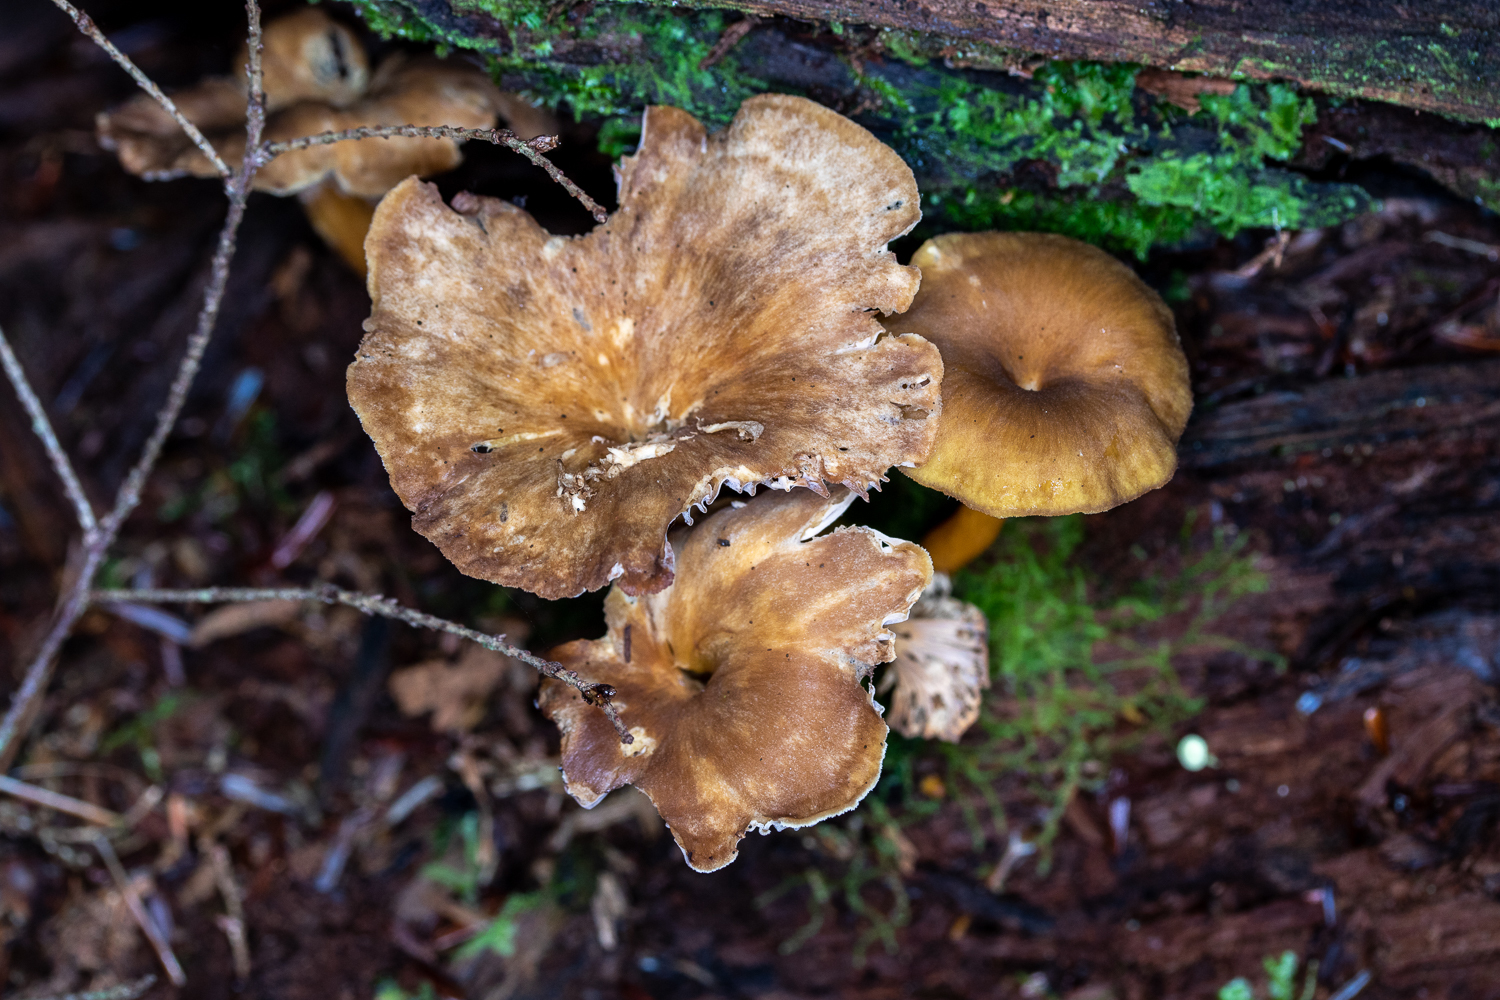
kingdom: Fungi
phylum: Basidiomycota
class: Agaricomycetes
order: Cantharellales
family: Hydnaceae
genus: Craterellus
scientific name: Craterellus tubaeformis
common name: Yellowfoot
